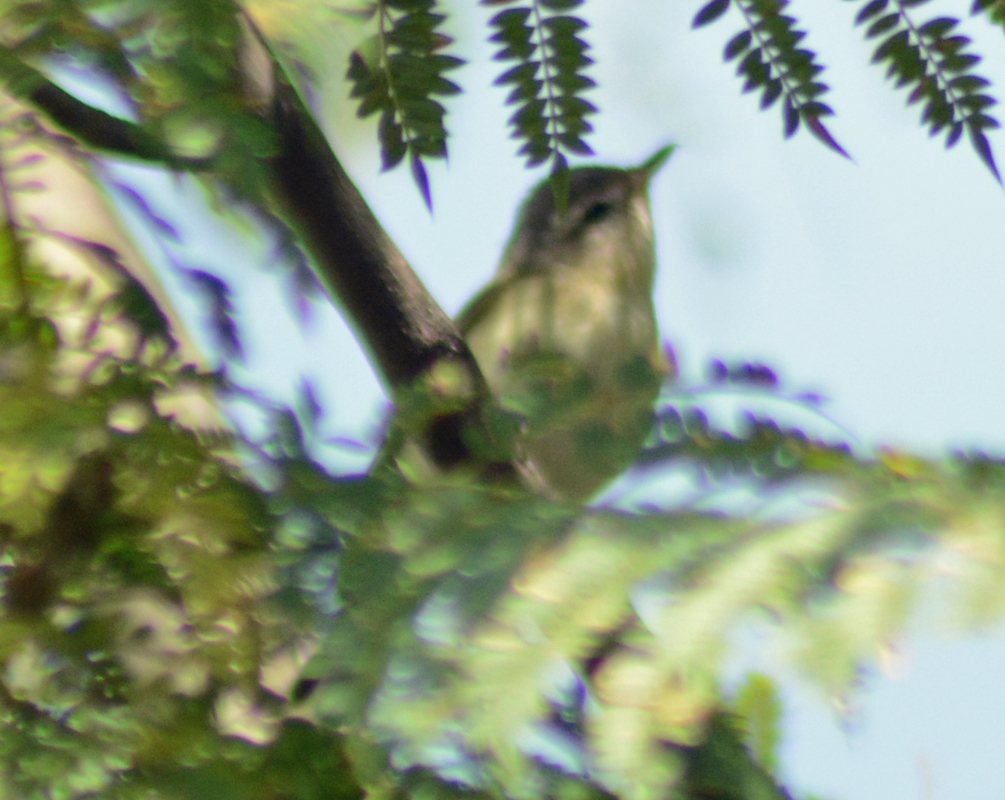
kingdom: Animalia
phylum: Chordata
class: Aves
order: Passeriformes
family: Vireonidae
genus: Vireo
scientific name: Vireo gilvus
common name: Warbling vireo
